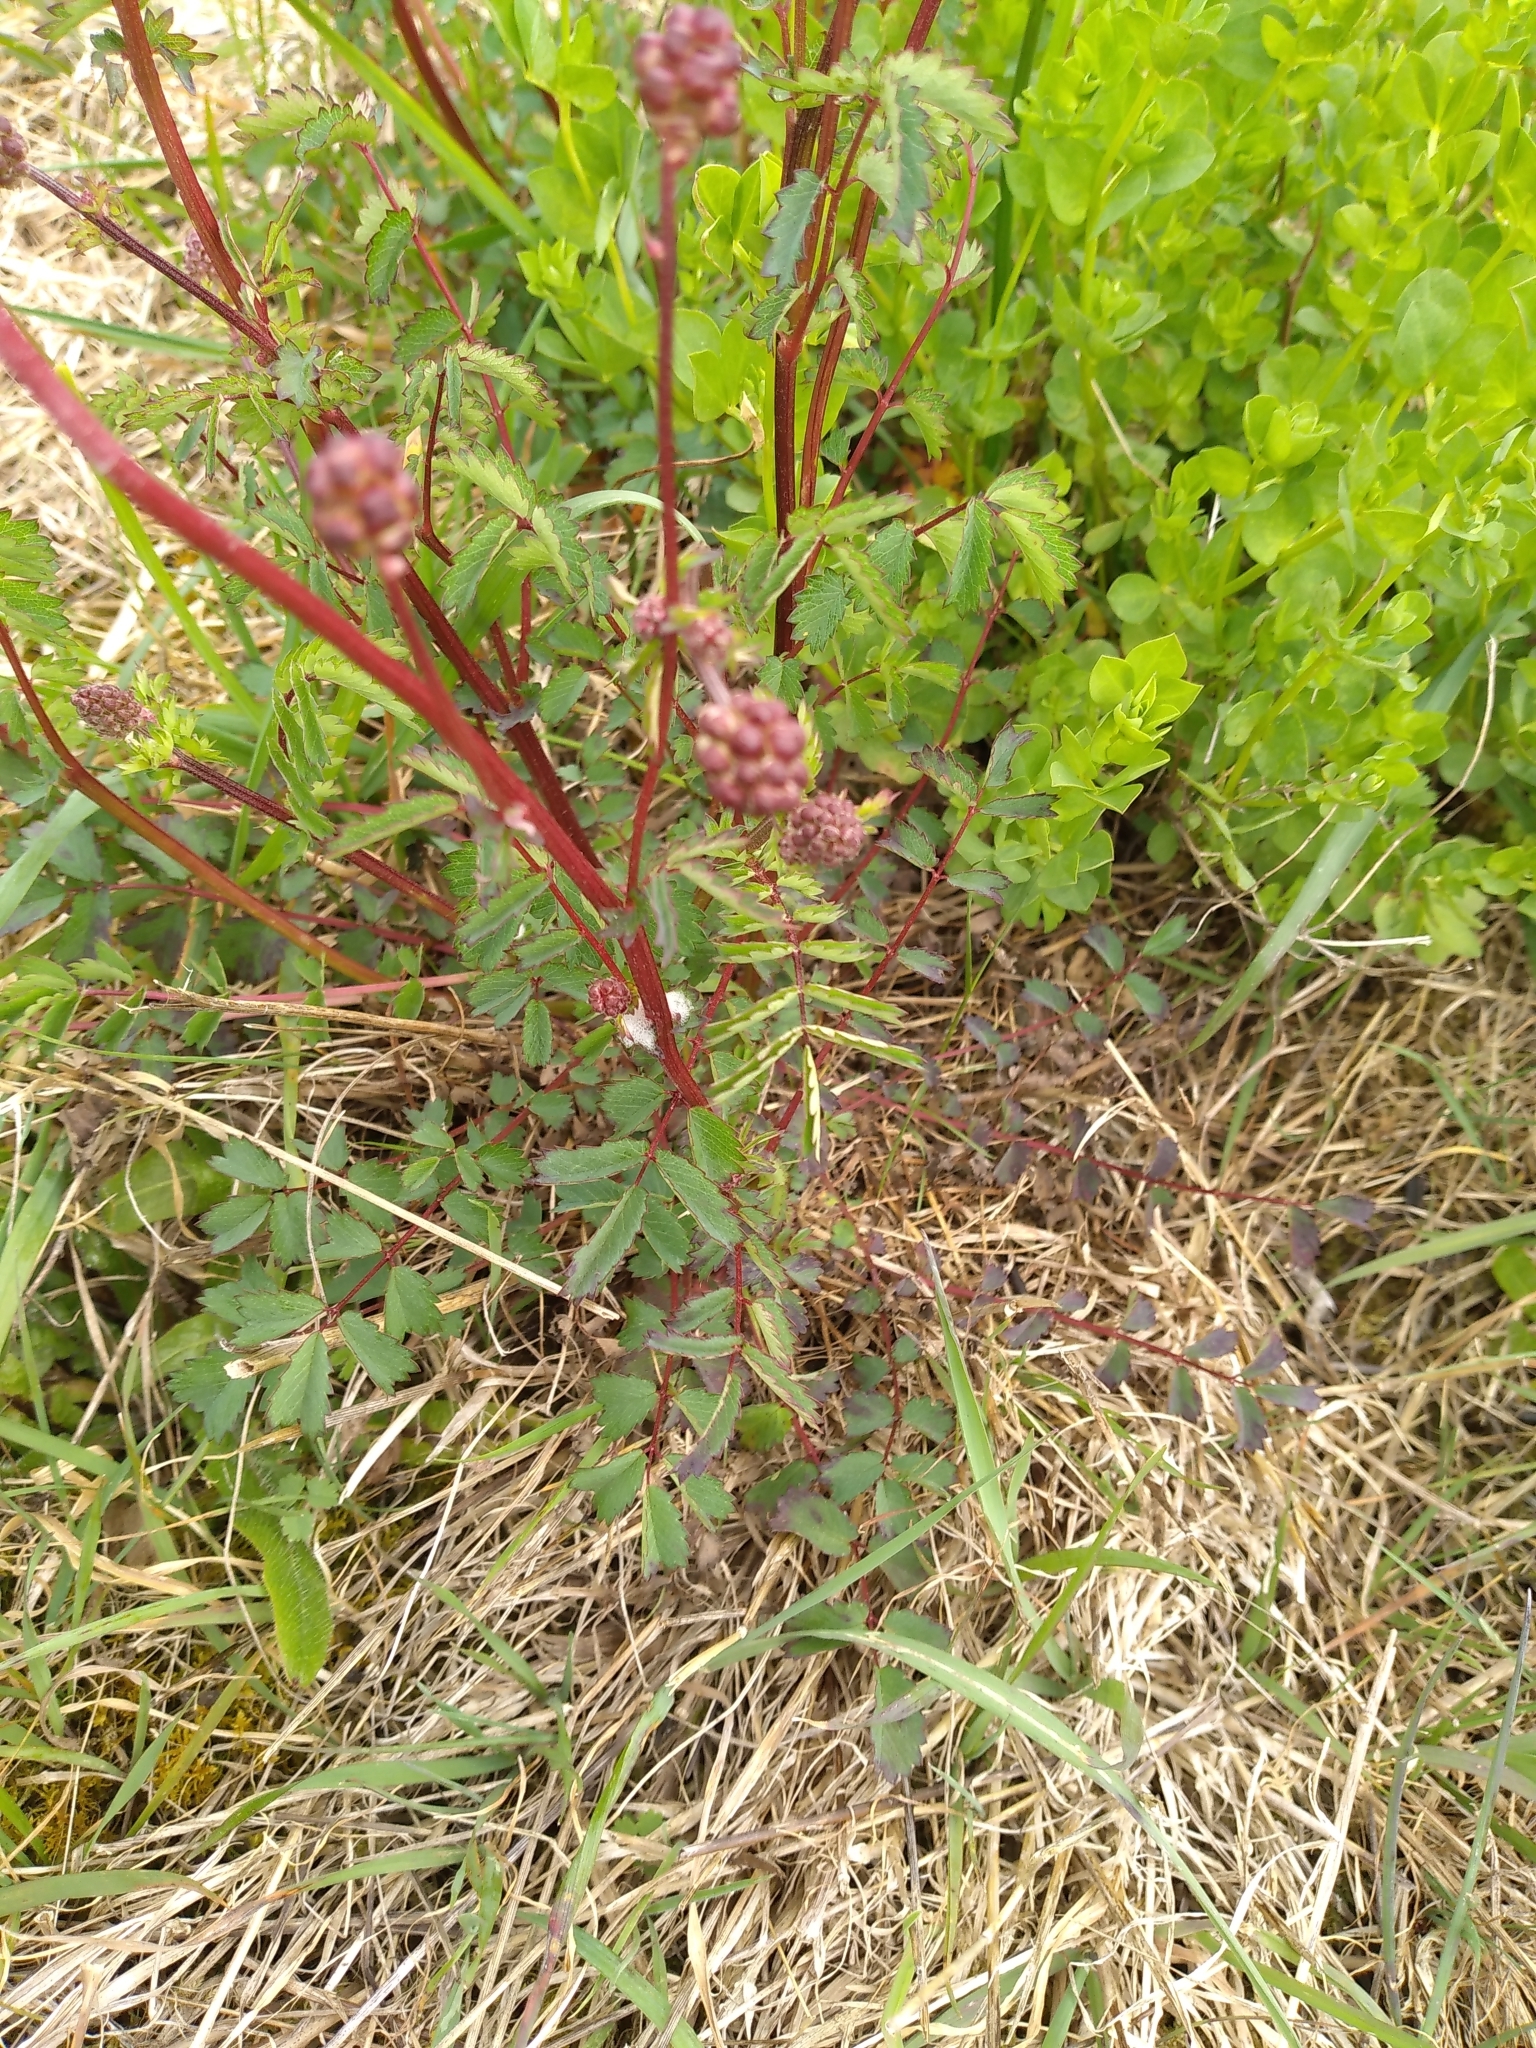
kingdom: Plantae
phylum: Tracheophyta
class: Magnoliopsida
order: Rosales
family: Rosaceae
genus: Poterium
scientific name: Poterium sanguisorba
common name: Salad burnet
